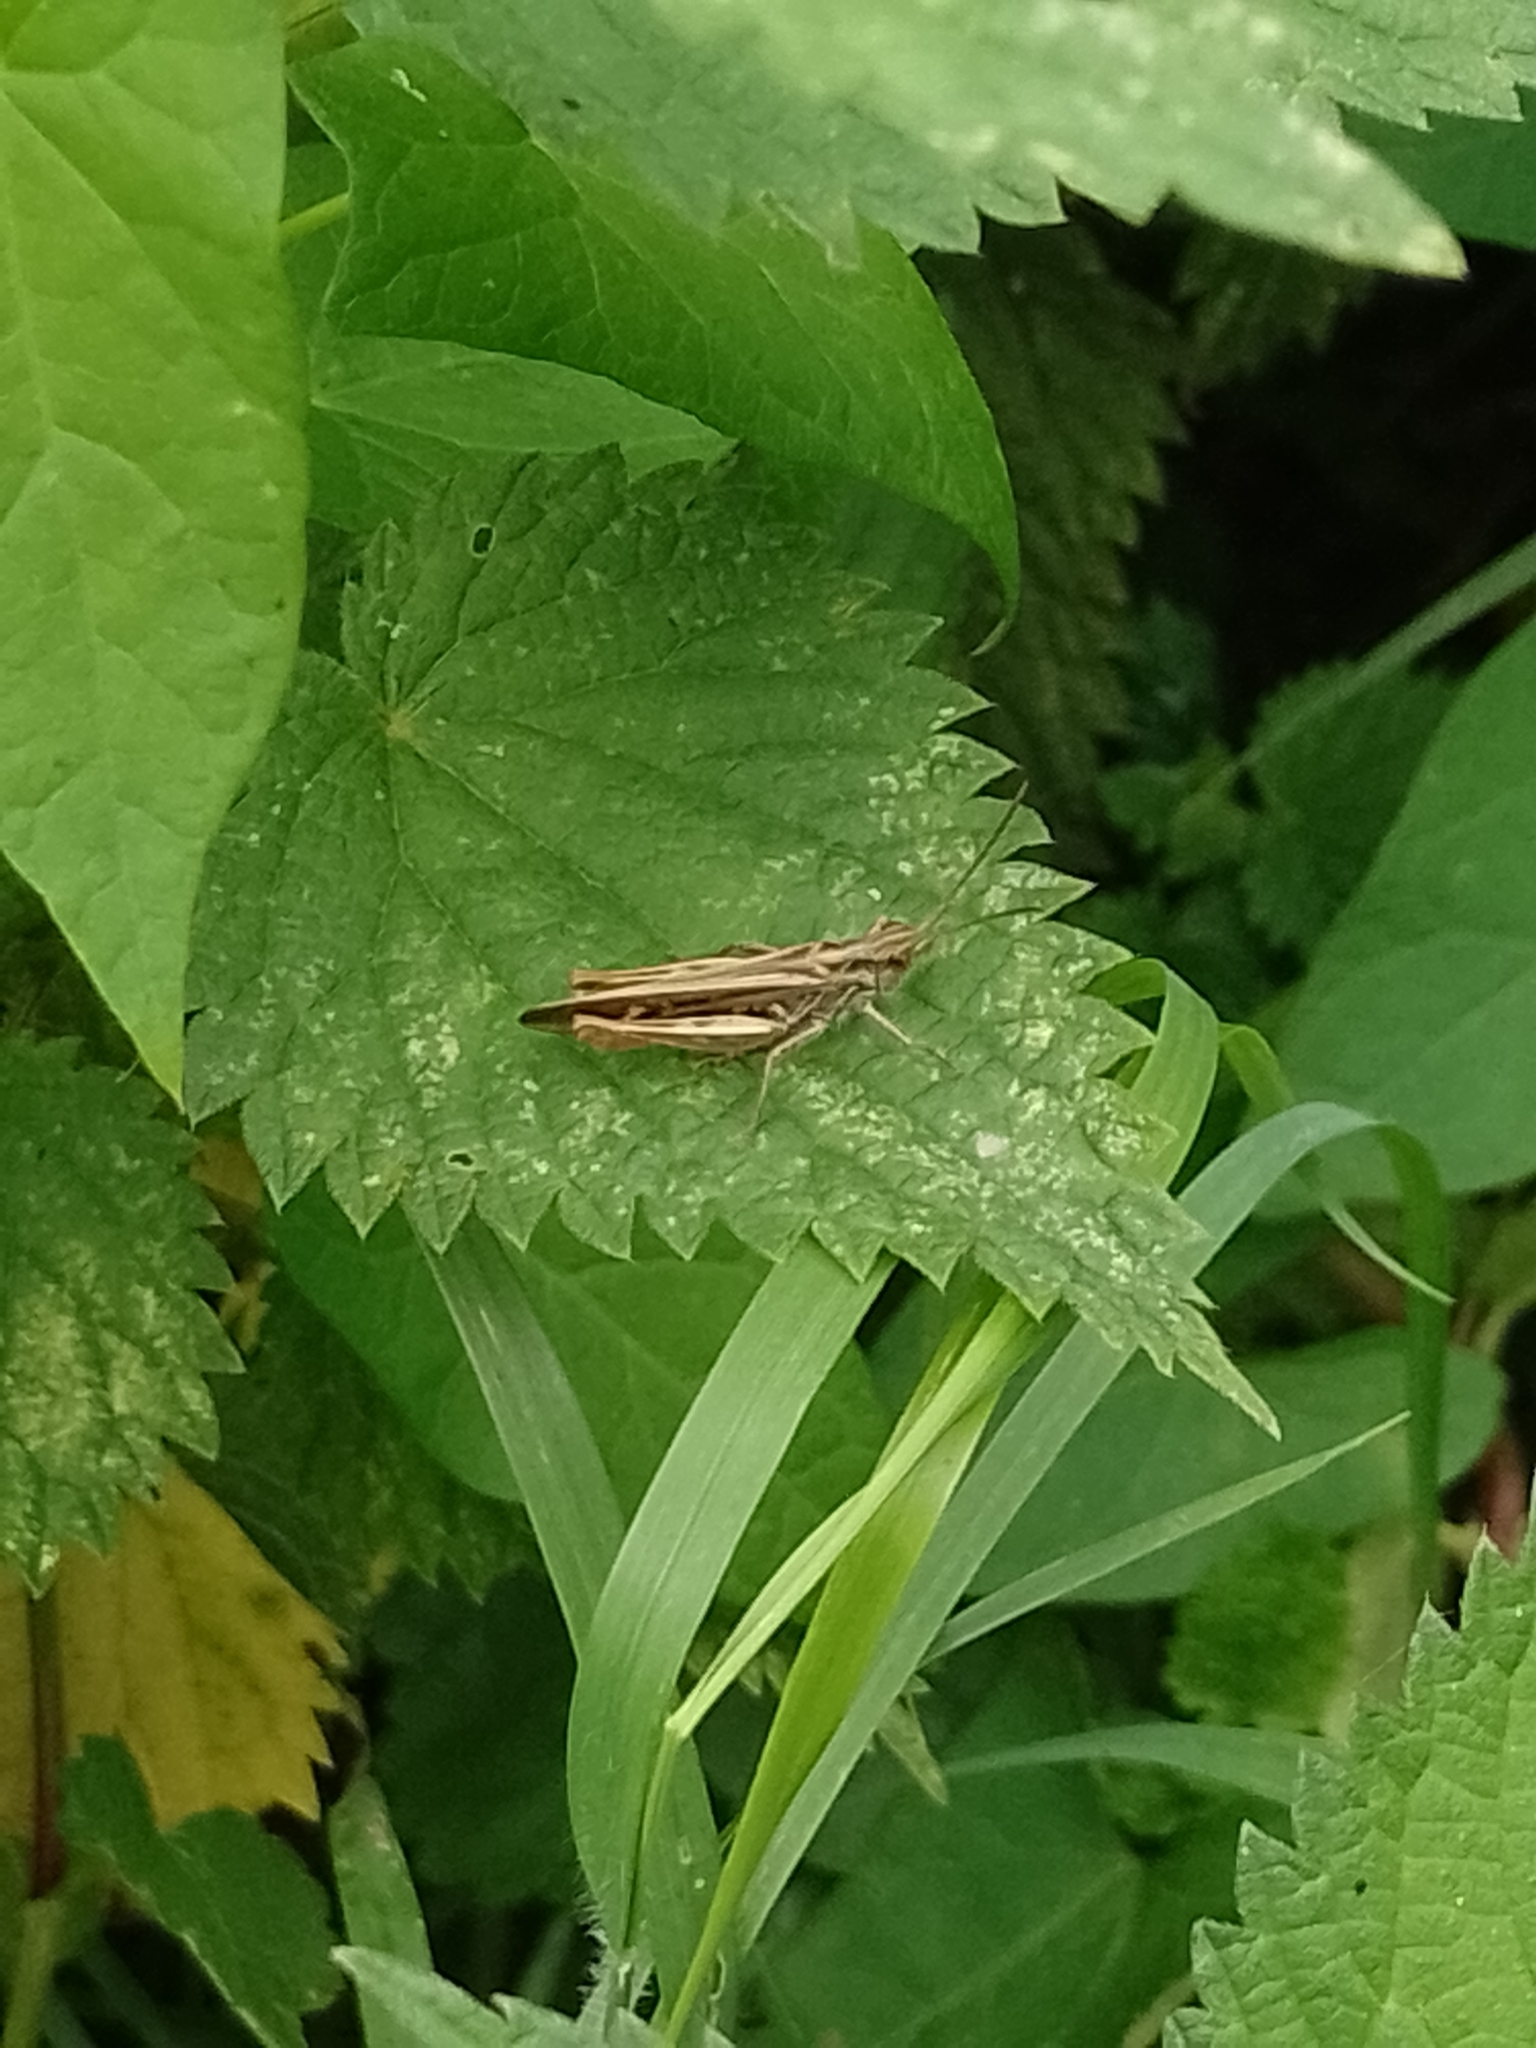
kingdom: Animalia
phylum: Arthropoda
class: Insecta
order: Orthoptera
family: Acrididae
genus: Chorthippus
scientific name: Chorthippus brunneus
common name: Field grasshopper
